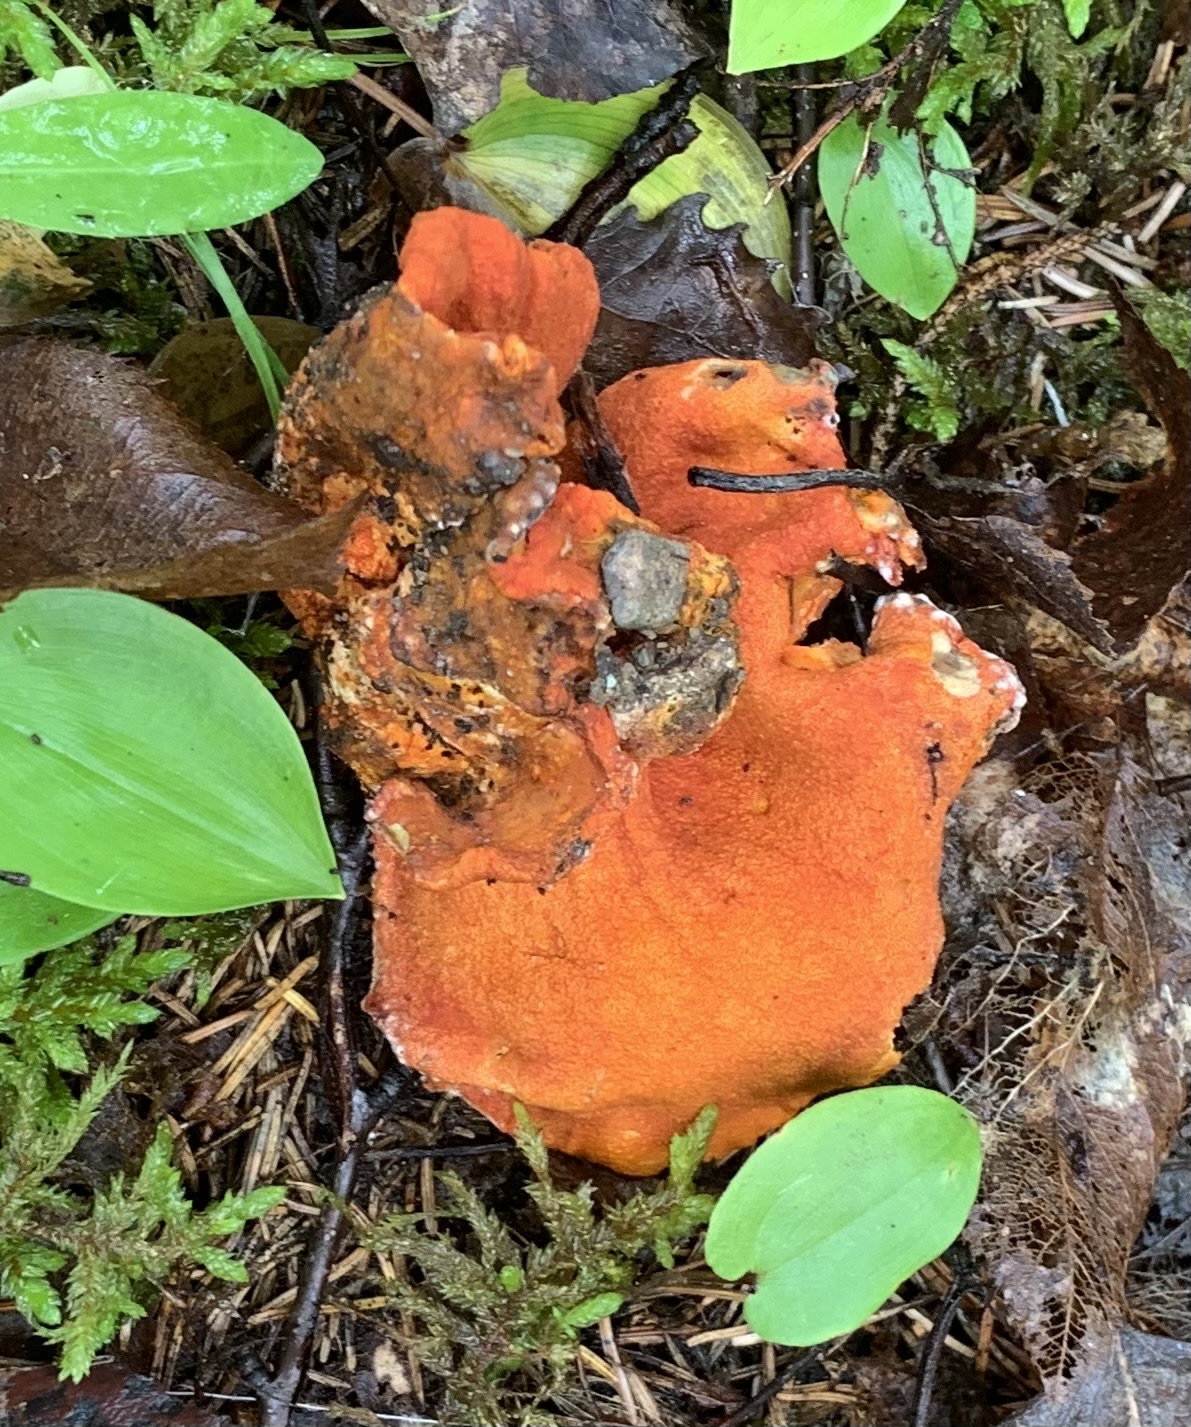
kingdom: Fungi
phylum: Ascomycota
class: Sordariomycetes
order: Hypocreales
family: Hypocreaceae
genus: Hypomyces
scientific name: Hypomyces lactifluorum
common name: Lobster mushroom
